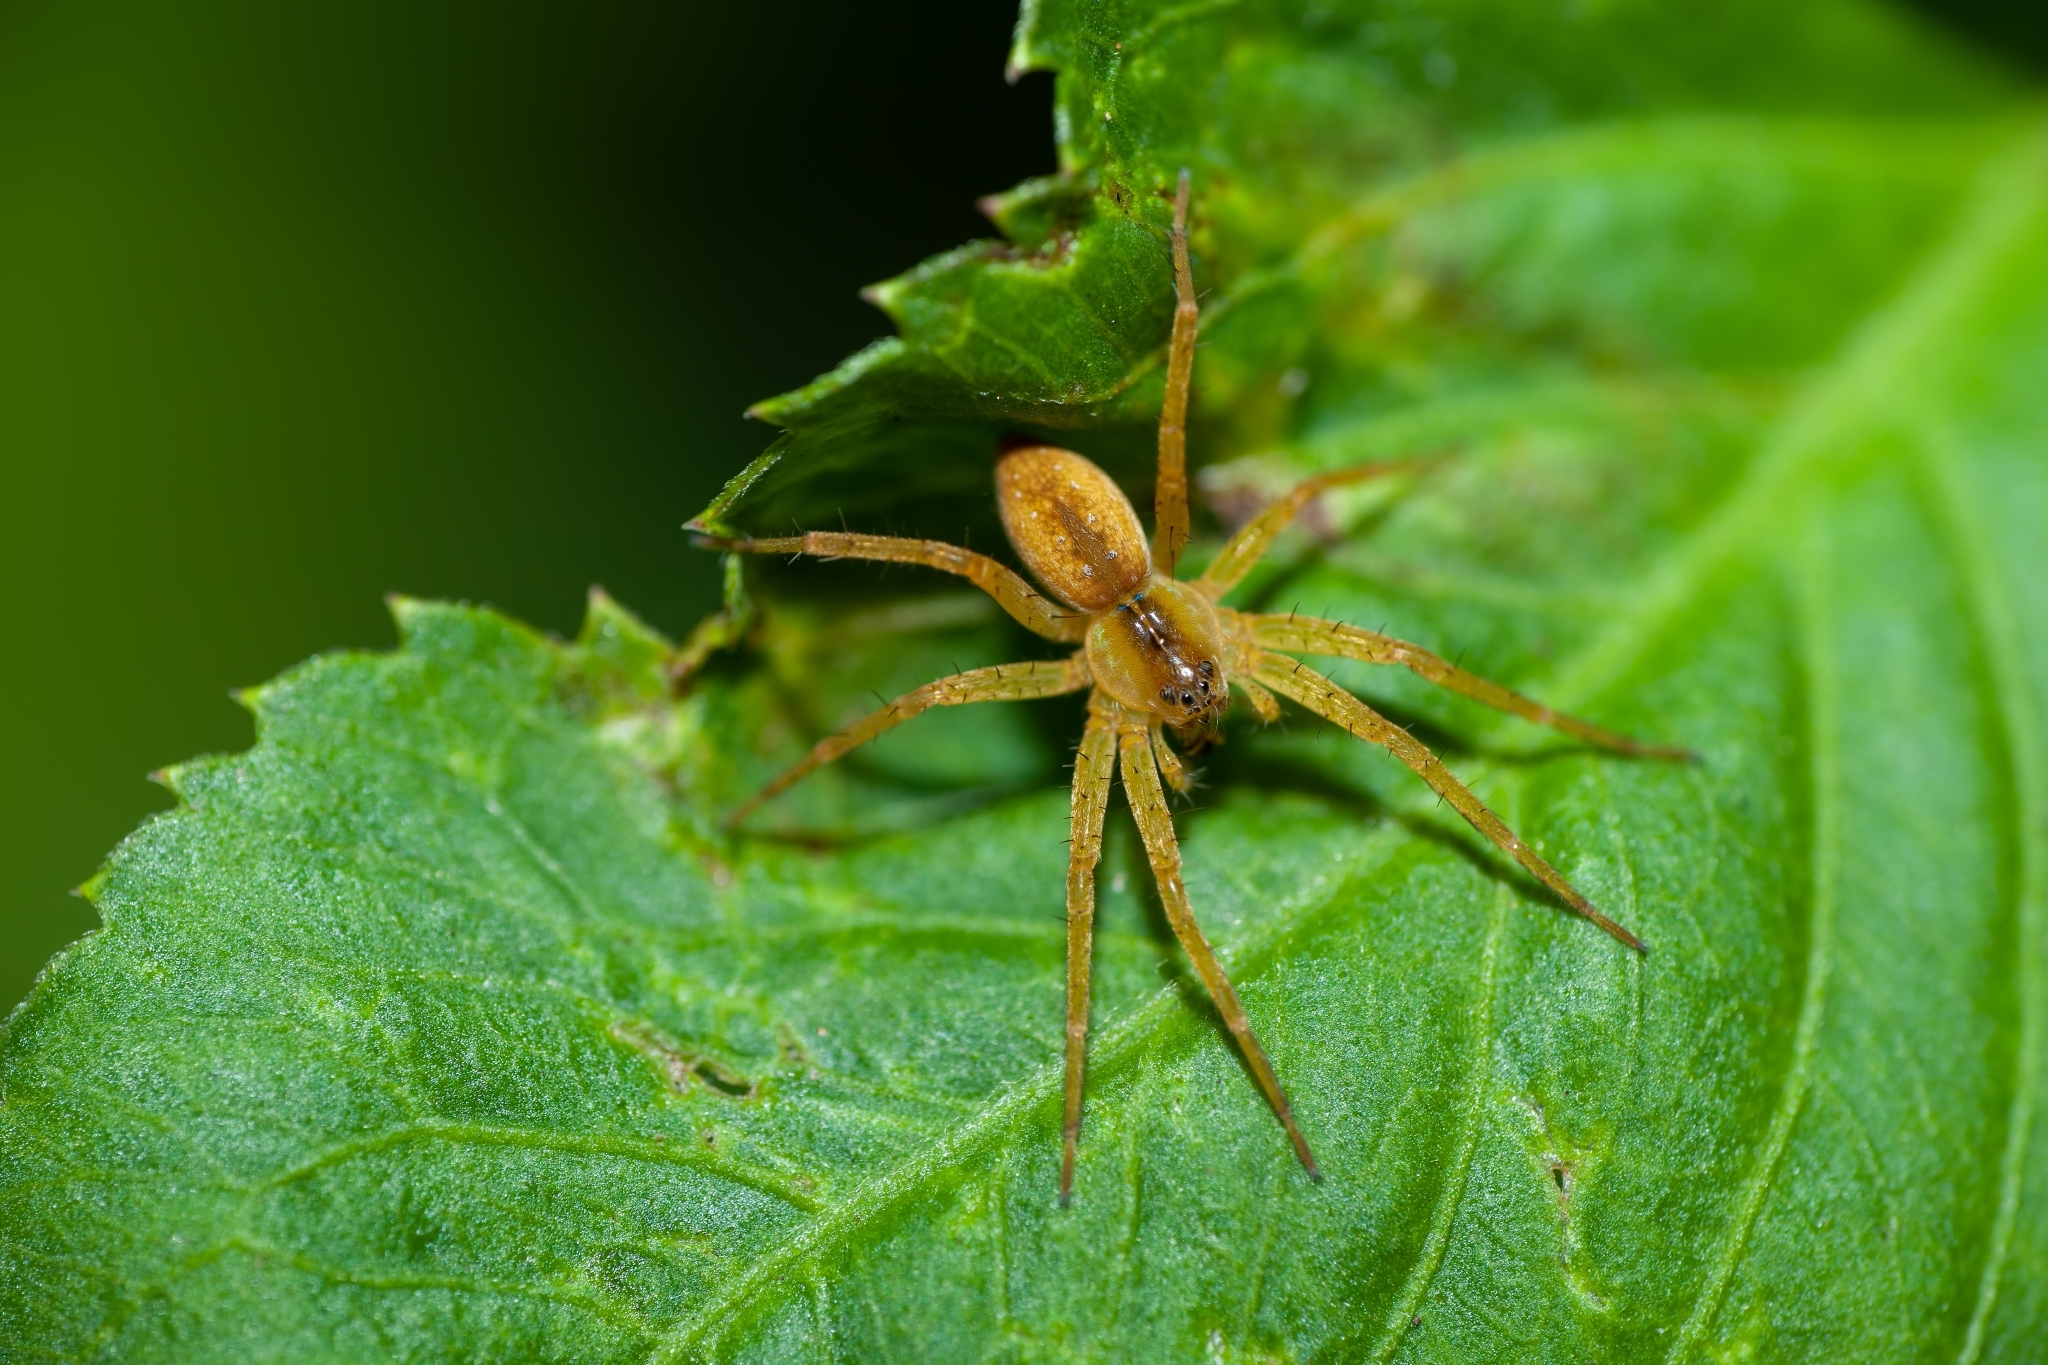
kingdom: Animalia
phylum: Arthropoda
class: Arachnida
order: Araneae
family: Pisauridae
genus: Dolomedes
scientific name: Dolomedes triton
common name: Six-spotted fishing spider
